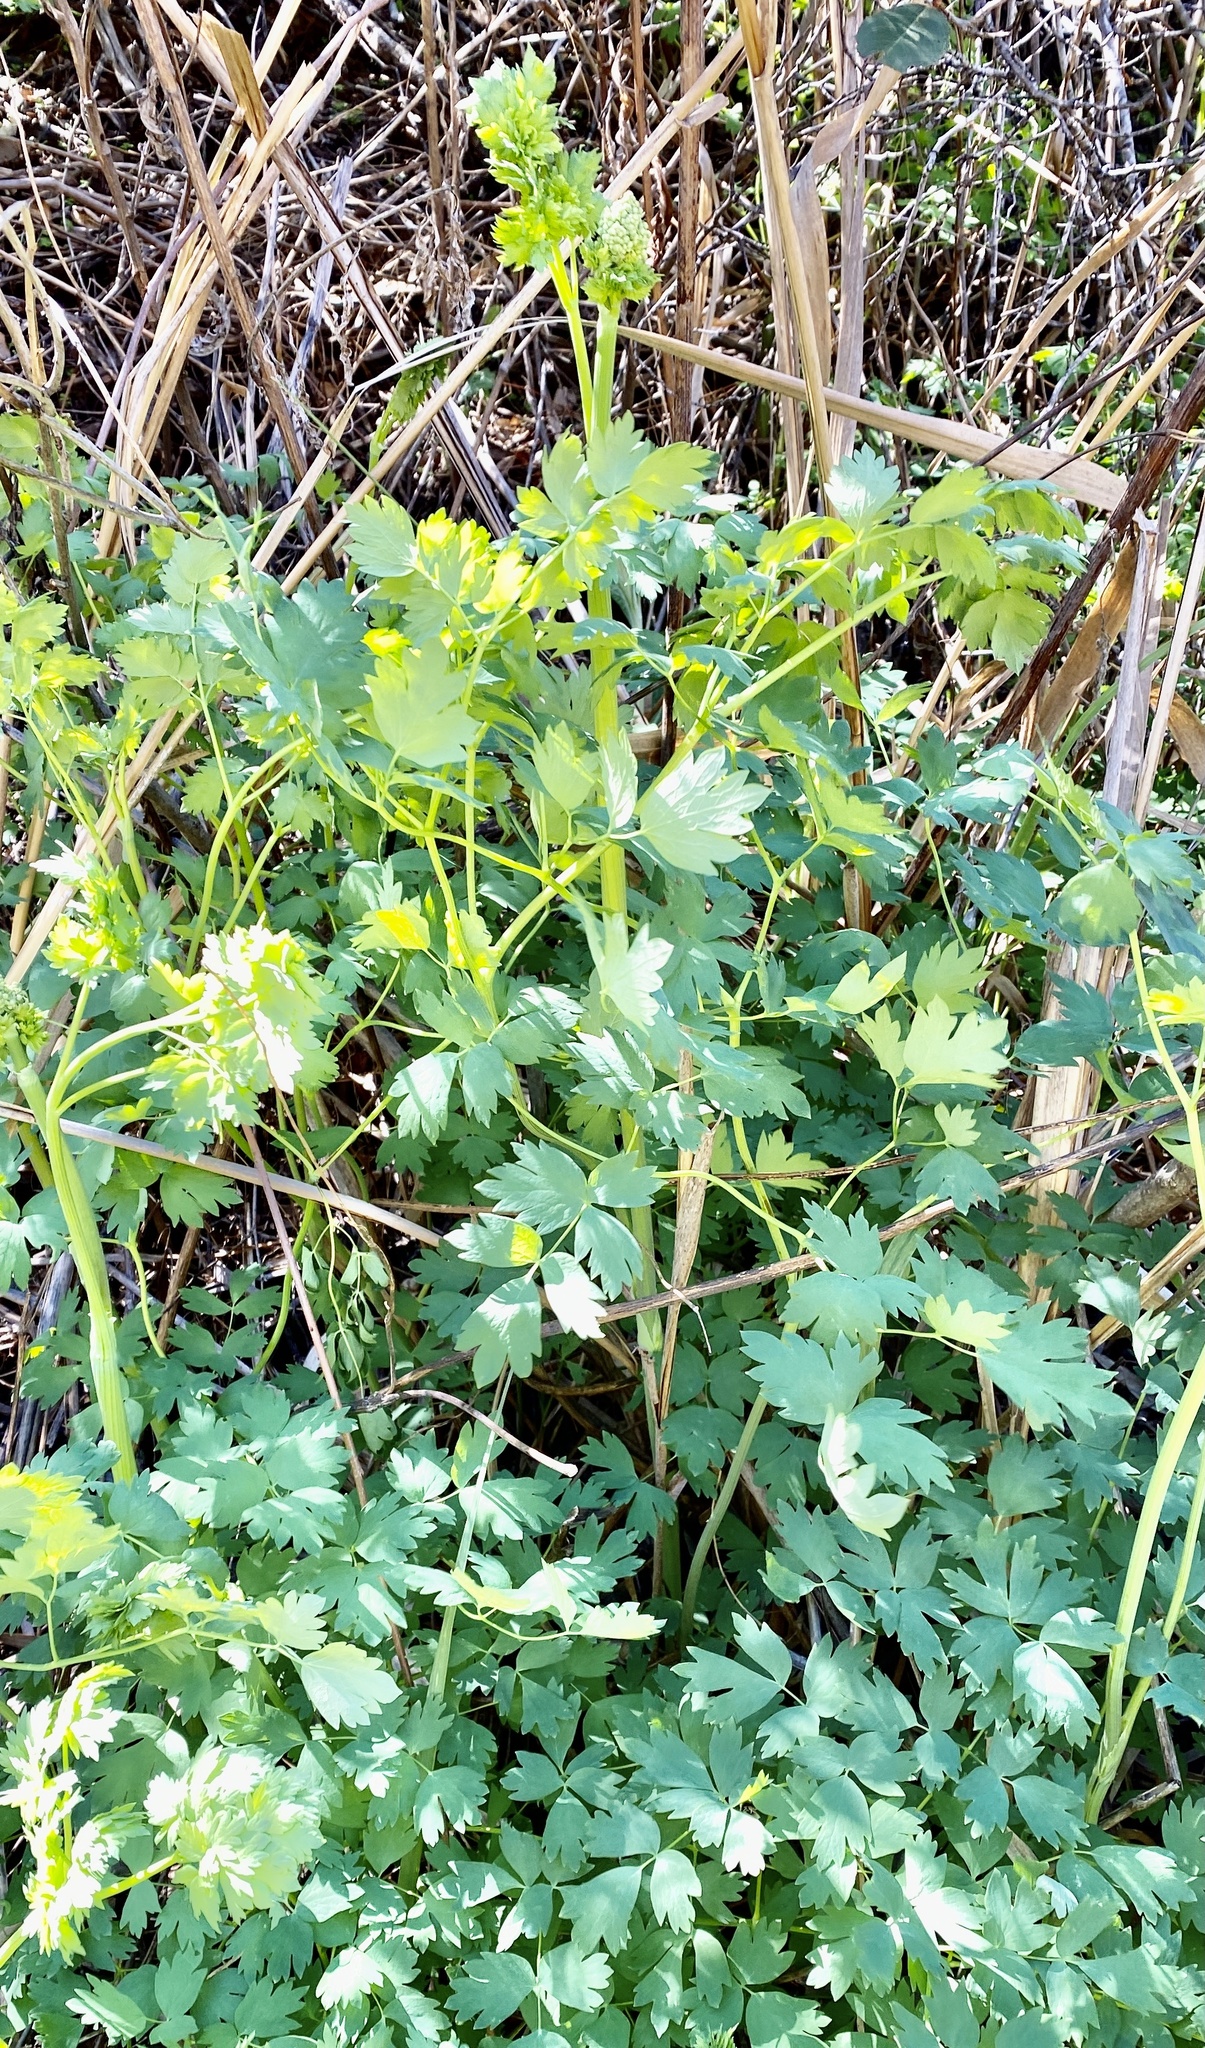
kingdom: Plantae
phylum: Tracheophyta
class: Magnoliopsida
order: Ranunculales
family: Ranunculaceae
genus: Thalictrum
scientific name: Thalictrum fendleri
